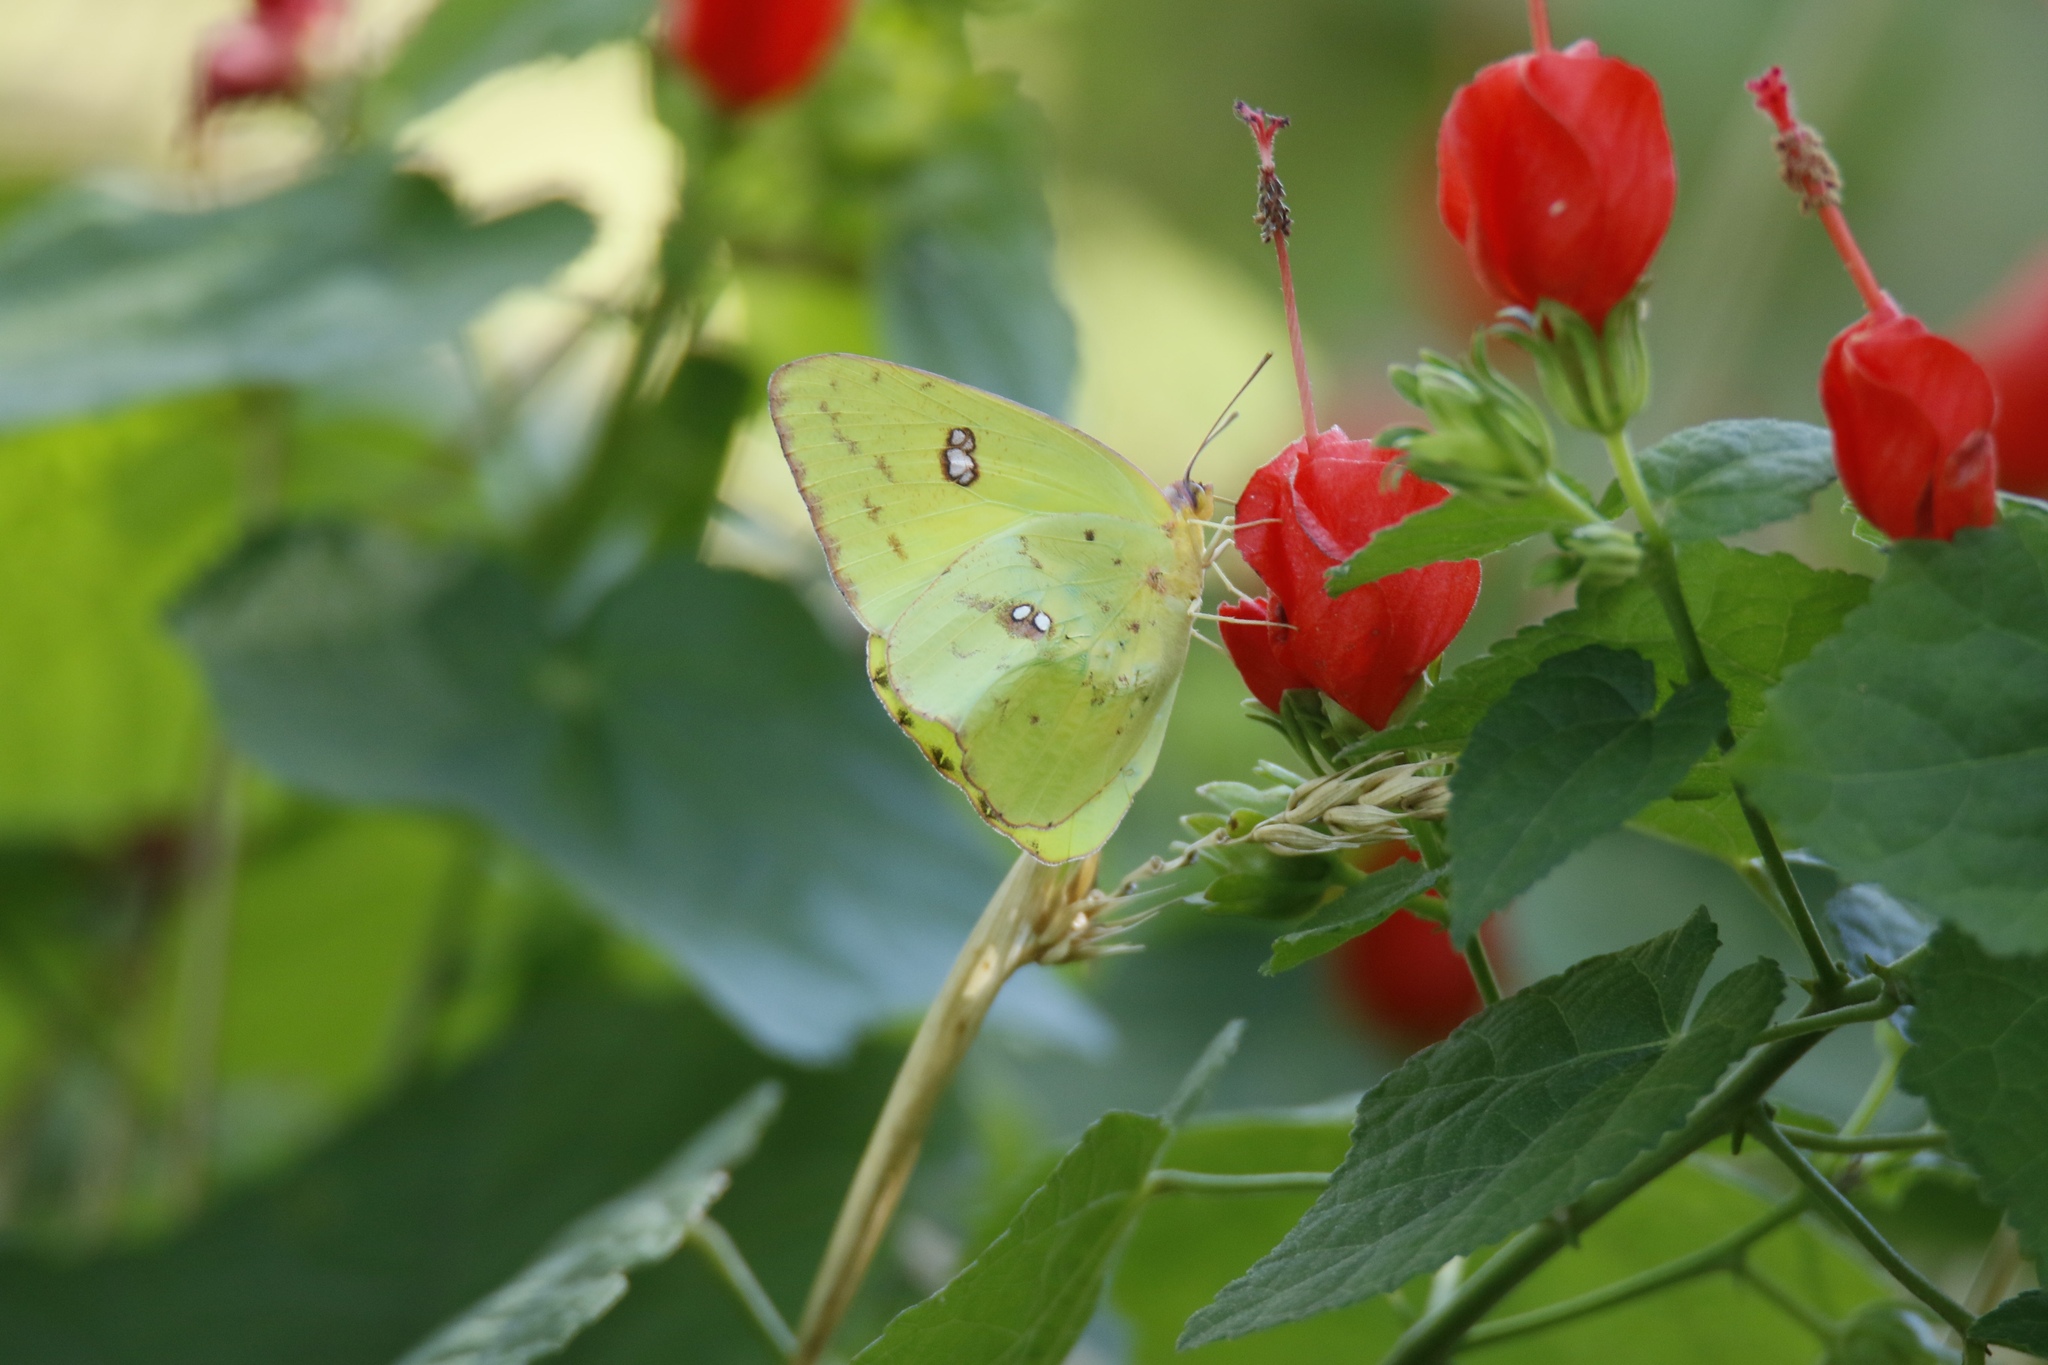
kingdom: Animalia
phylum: Arthropoda
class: Insecta
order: Lepidoptera
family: Pieridae
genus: Phoebis
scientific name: Phoebis sennae
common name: Cloudless sulphur
